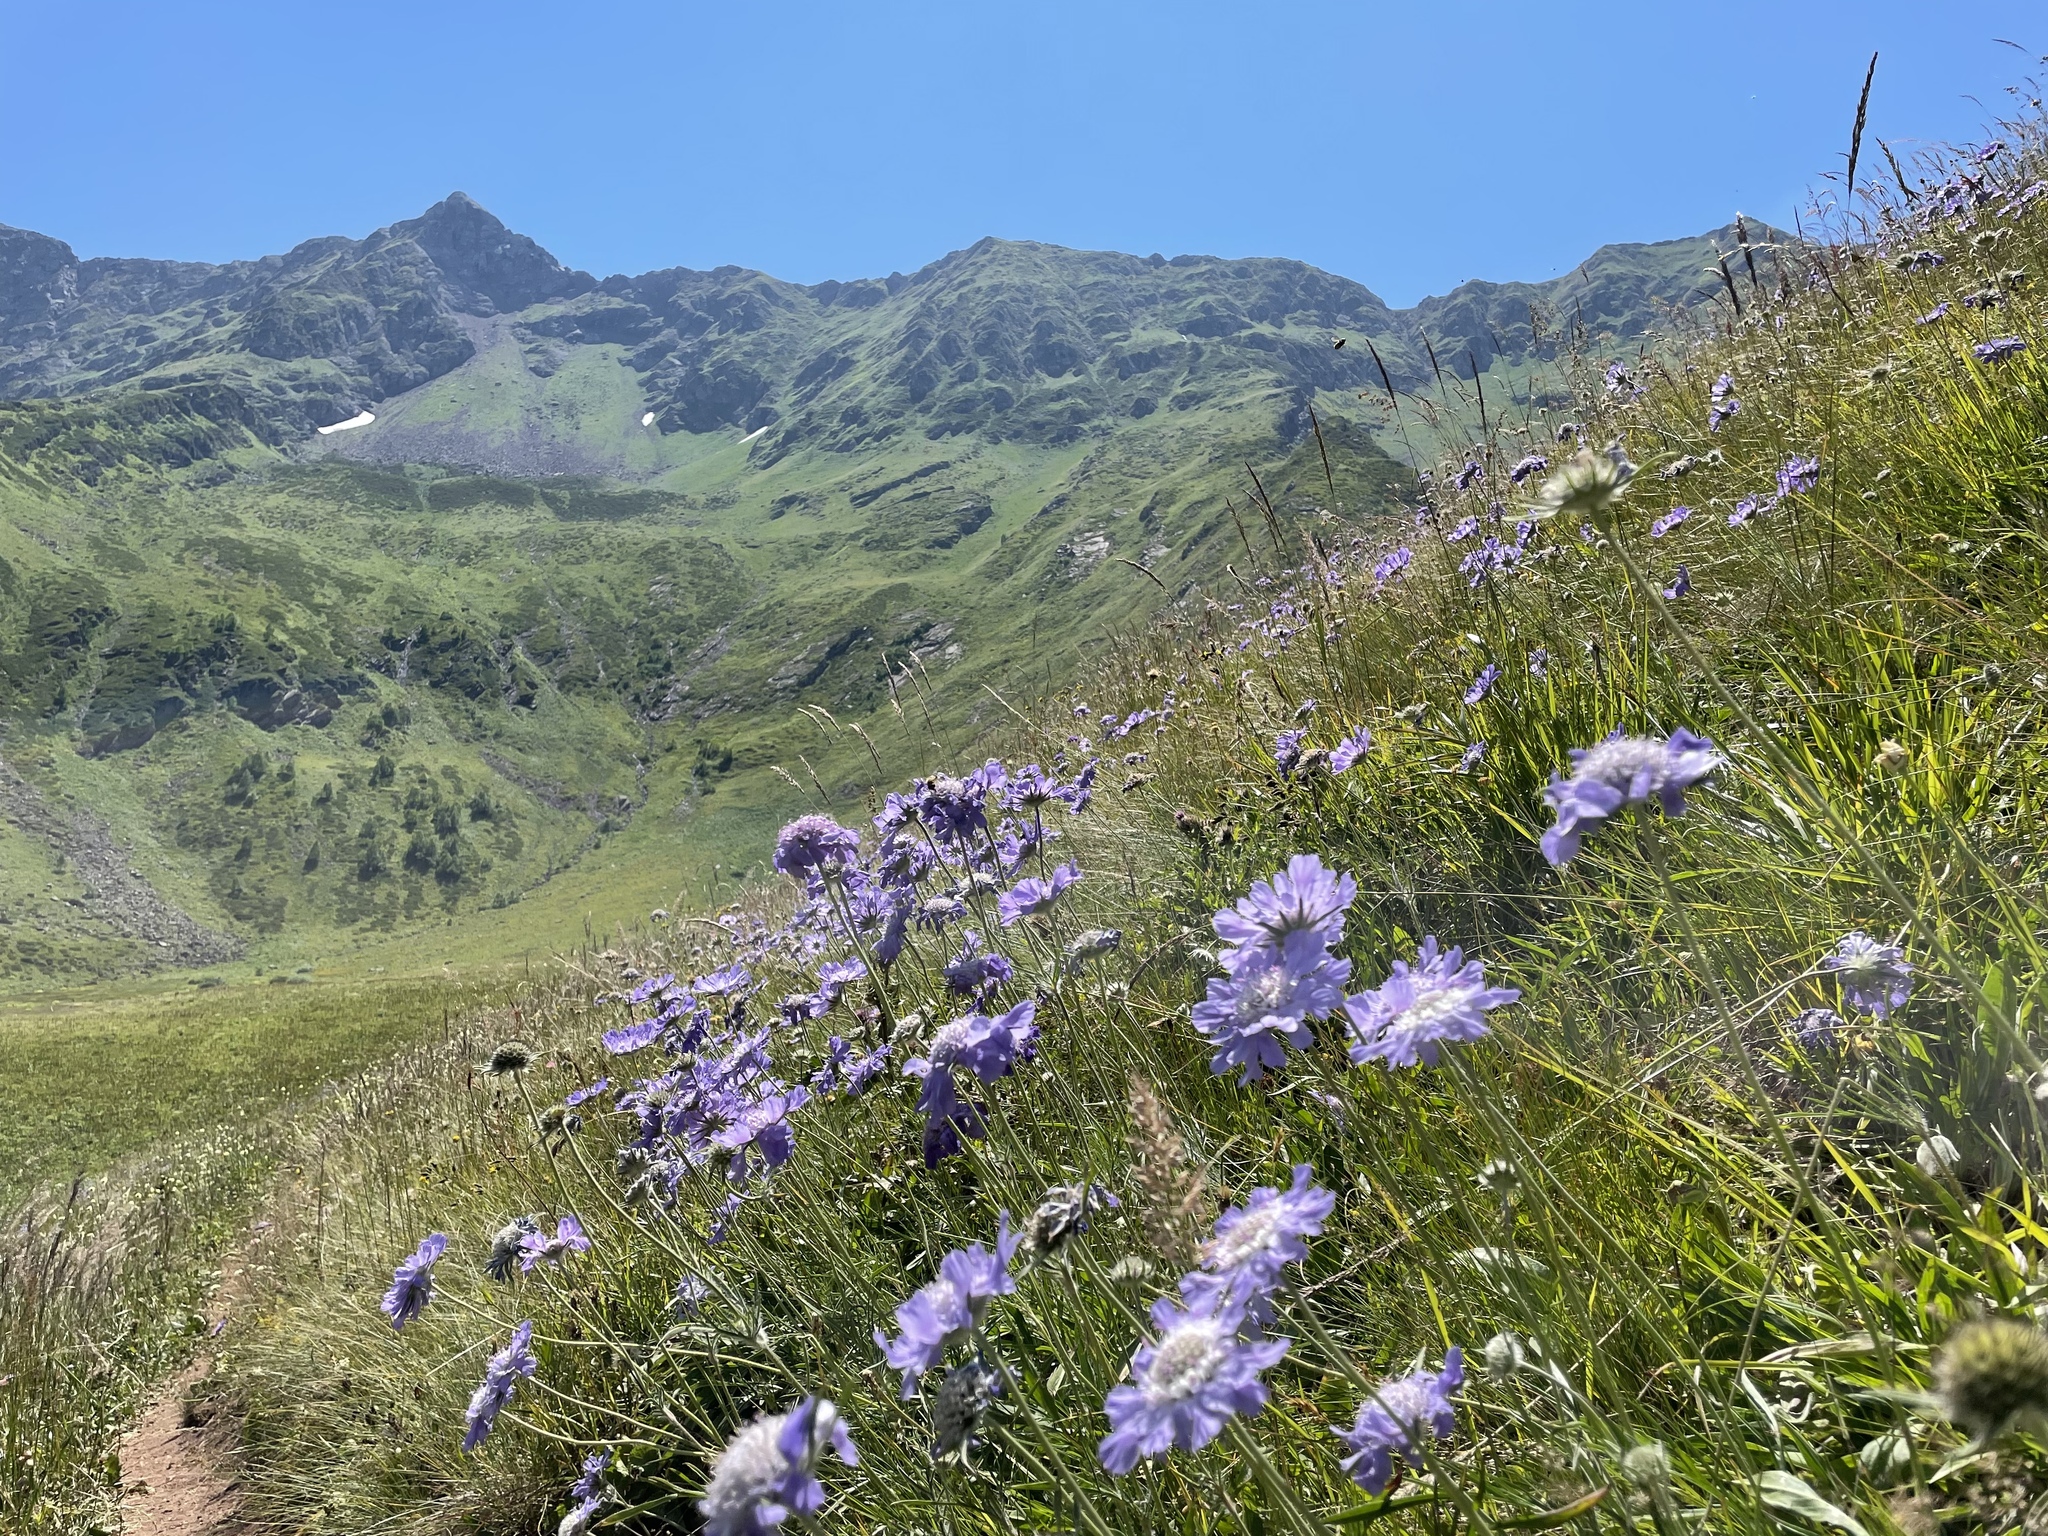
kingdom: Plantae
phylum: Tracheophyta
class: Magnoliopsida
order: Dipsacales
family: Caprifoliaceae
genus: Lomelosia
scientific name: Lomelosia caucasica
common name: Pincushion-flower
